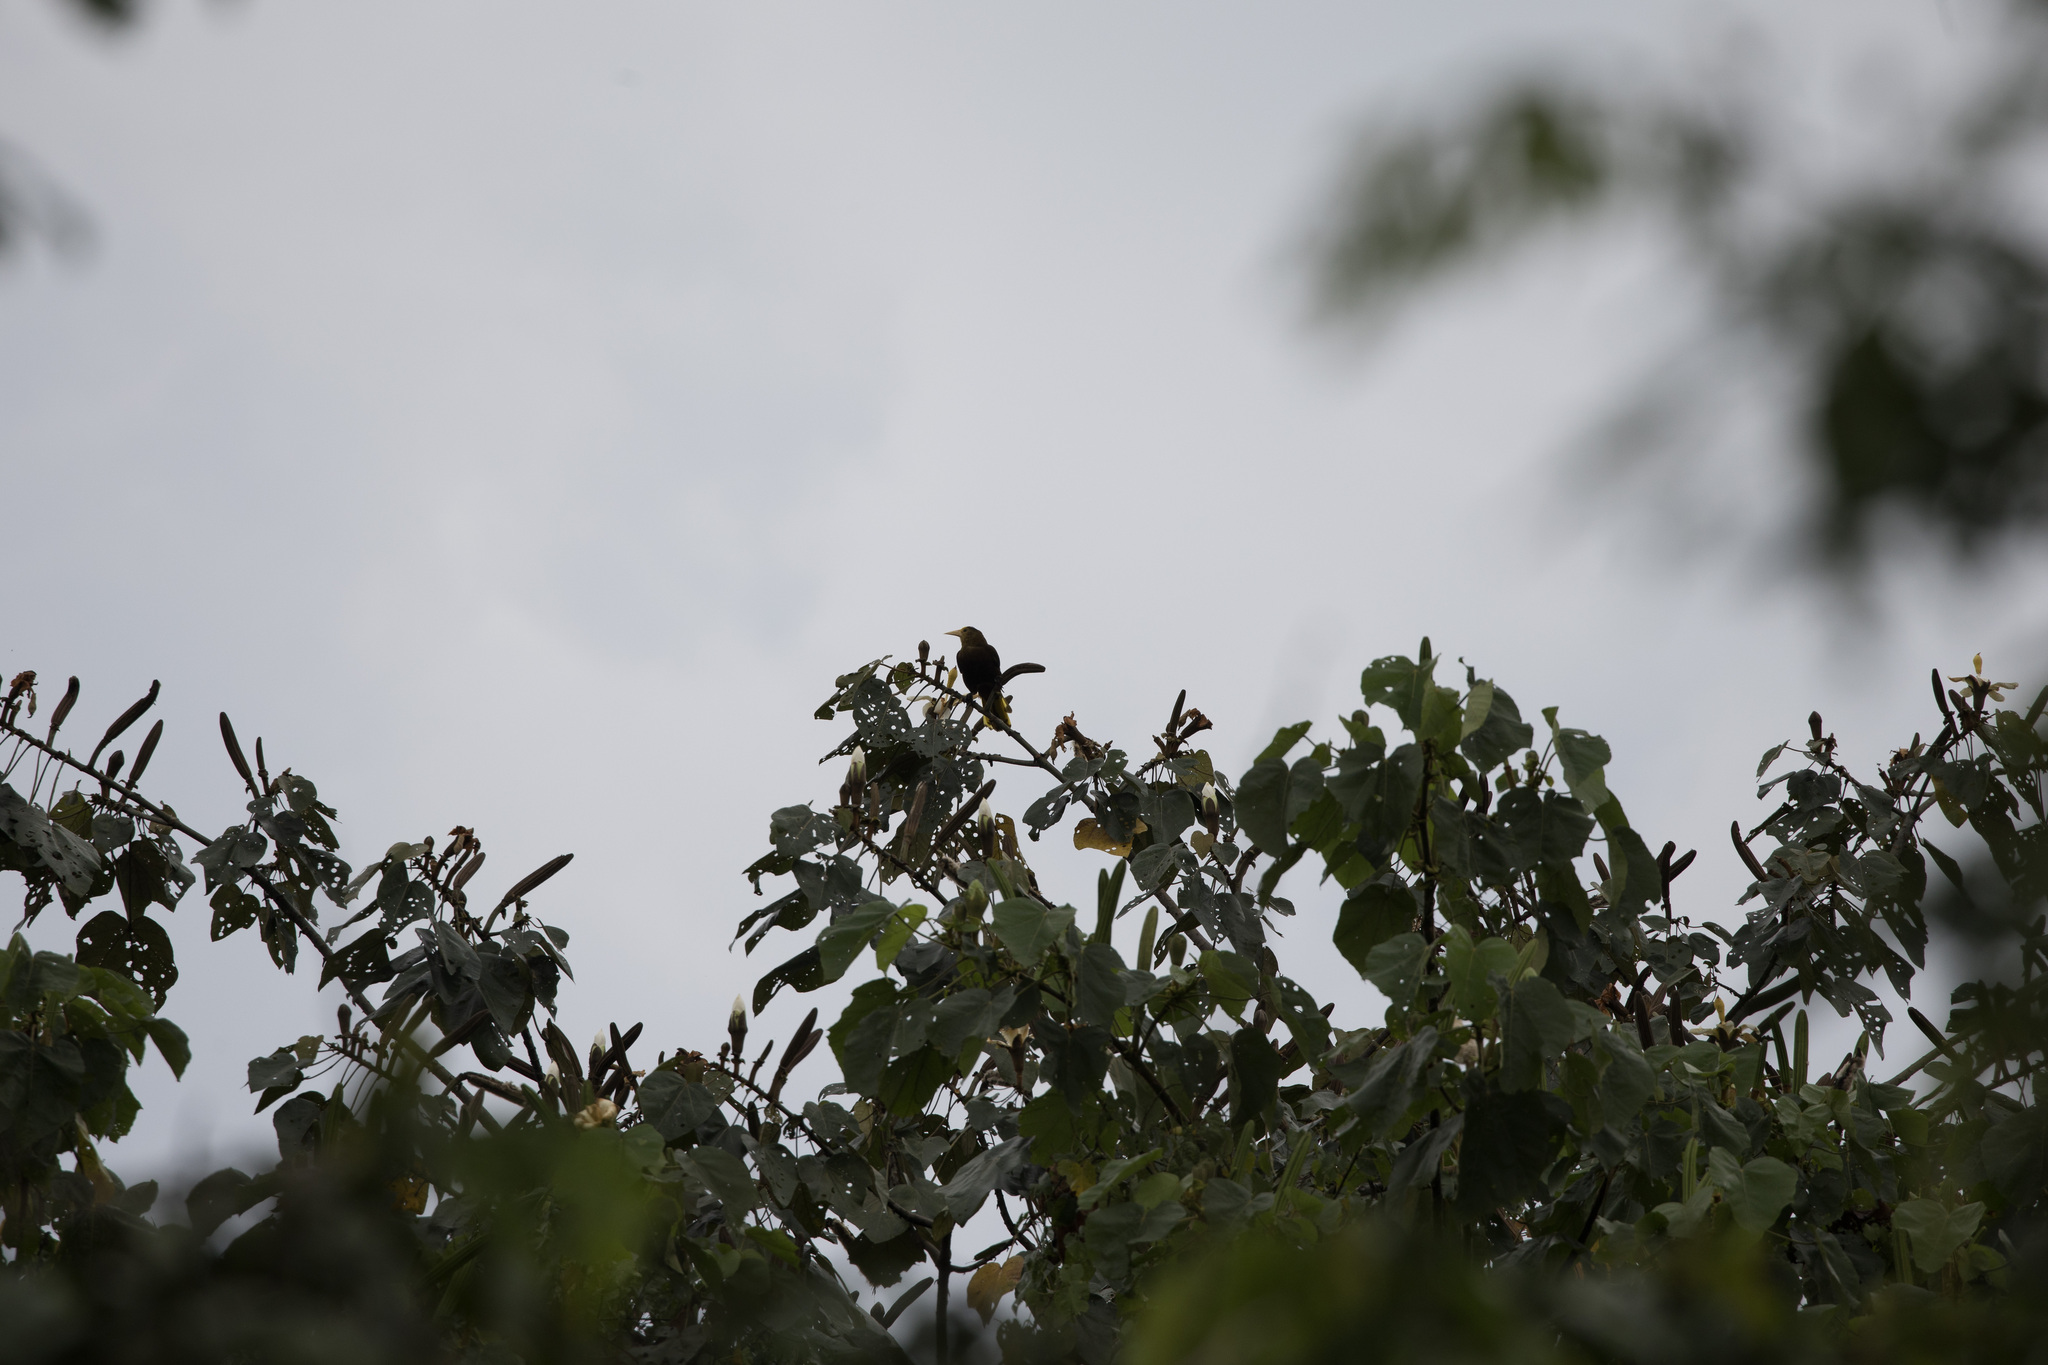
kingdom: Animalia
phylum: Chordata
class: Aves
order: Passeriformes
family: Icteridae
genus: Psarocolius
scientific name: Psarocolius angustifrons
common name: Russet-backed oropendola
